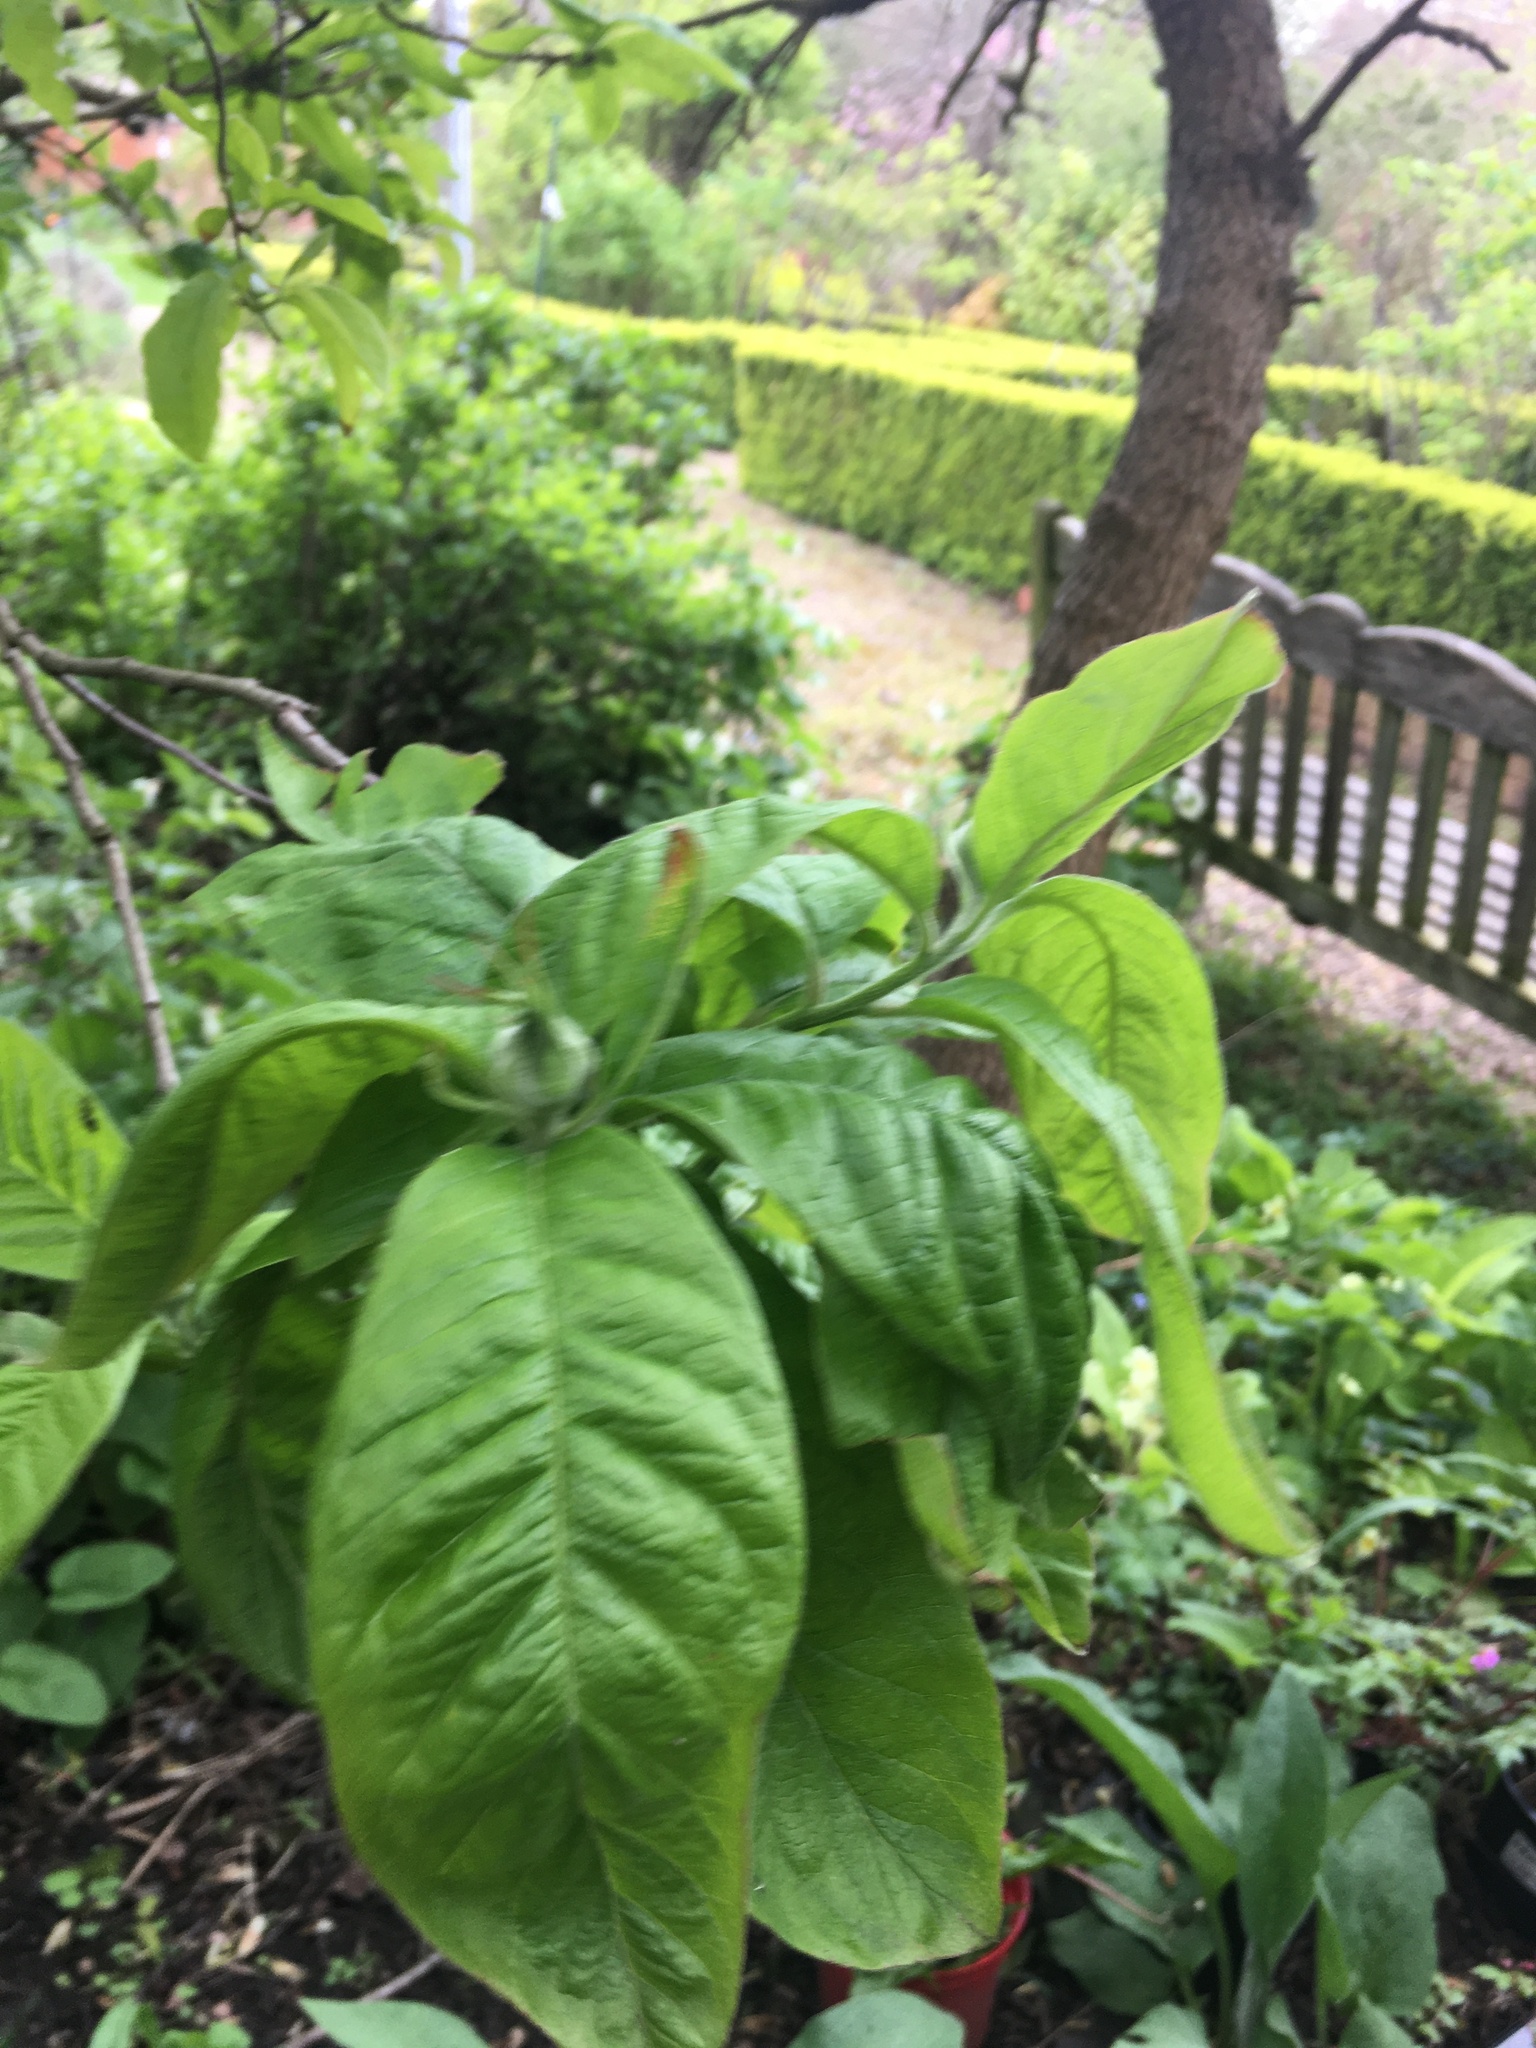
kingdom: Plantae
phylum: Tracheophyta
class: Magnoliopsida
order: Rosales
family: Rosaceae
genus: Mespilus
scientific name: Mespilus germanica
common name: Medlar
